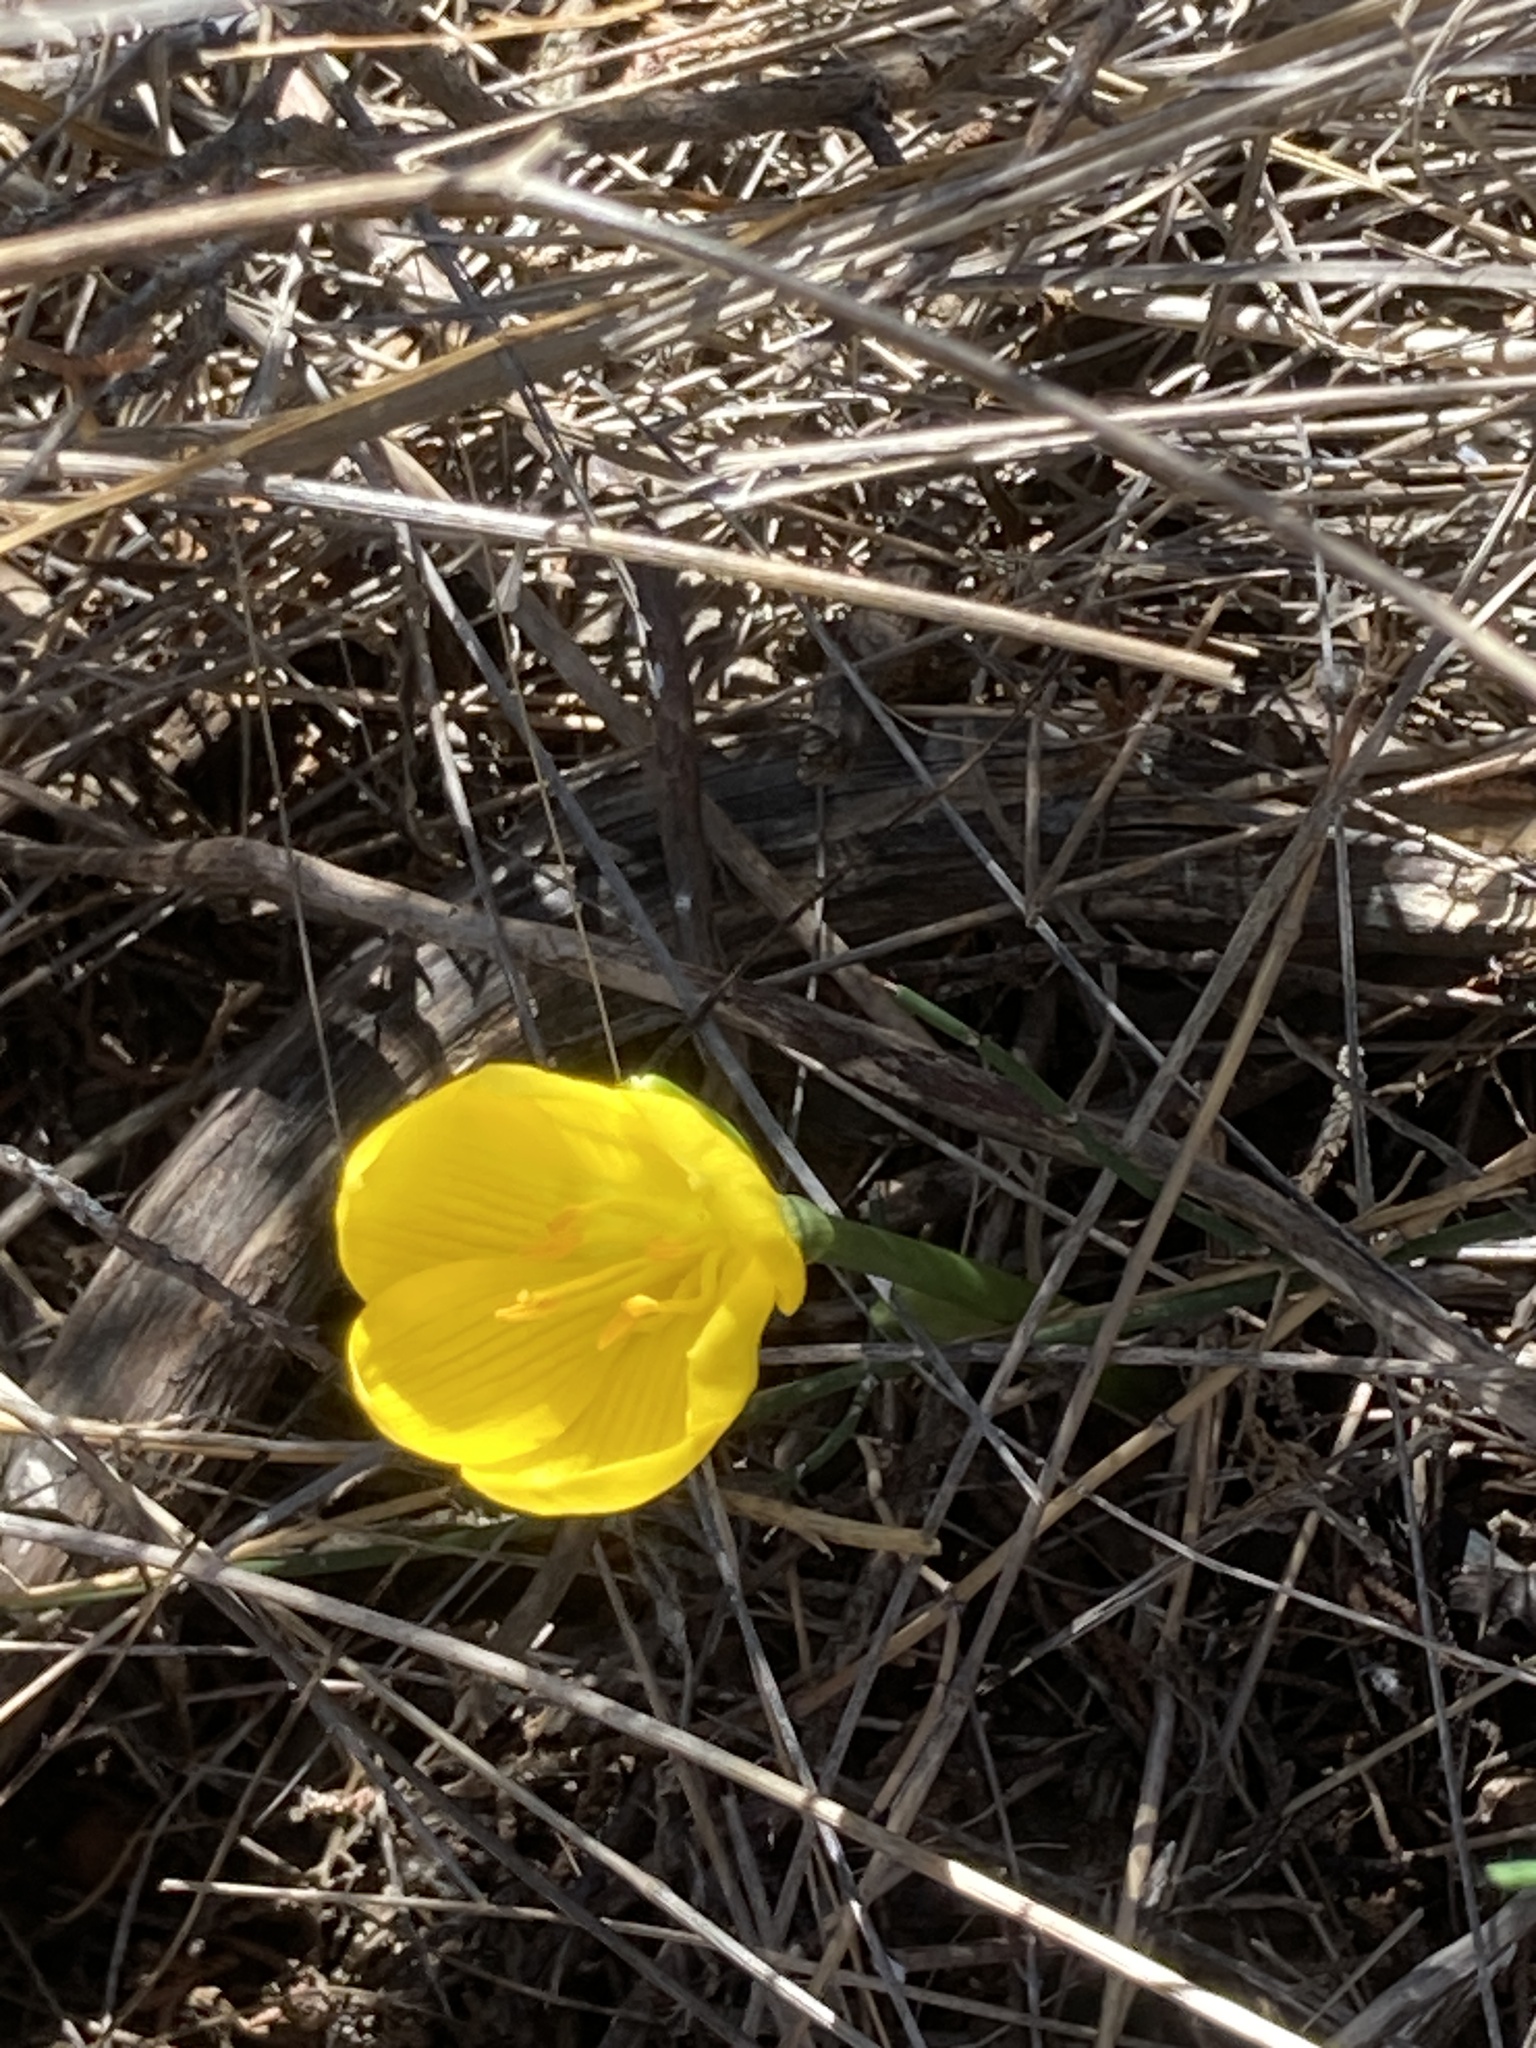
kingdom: Plantae
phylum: Tracheophyta
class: Liliopsida
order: Asparagales
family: Amaryllidaceae
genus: Sternbergia
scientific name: Sternbergia lutea
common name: Winter daffodil
